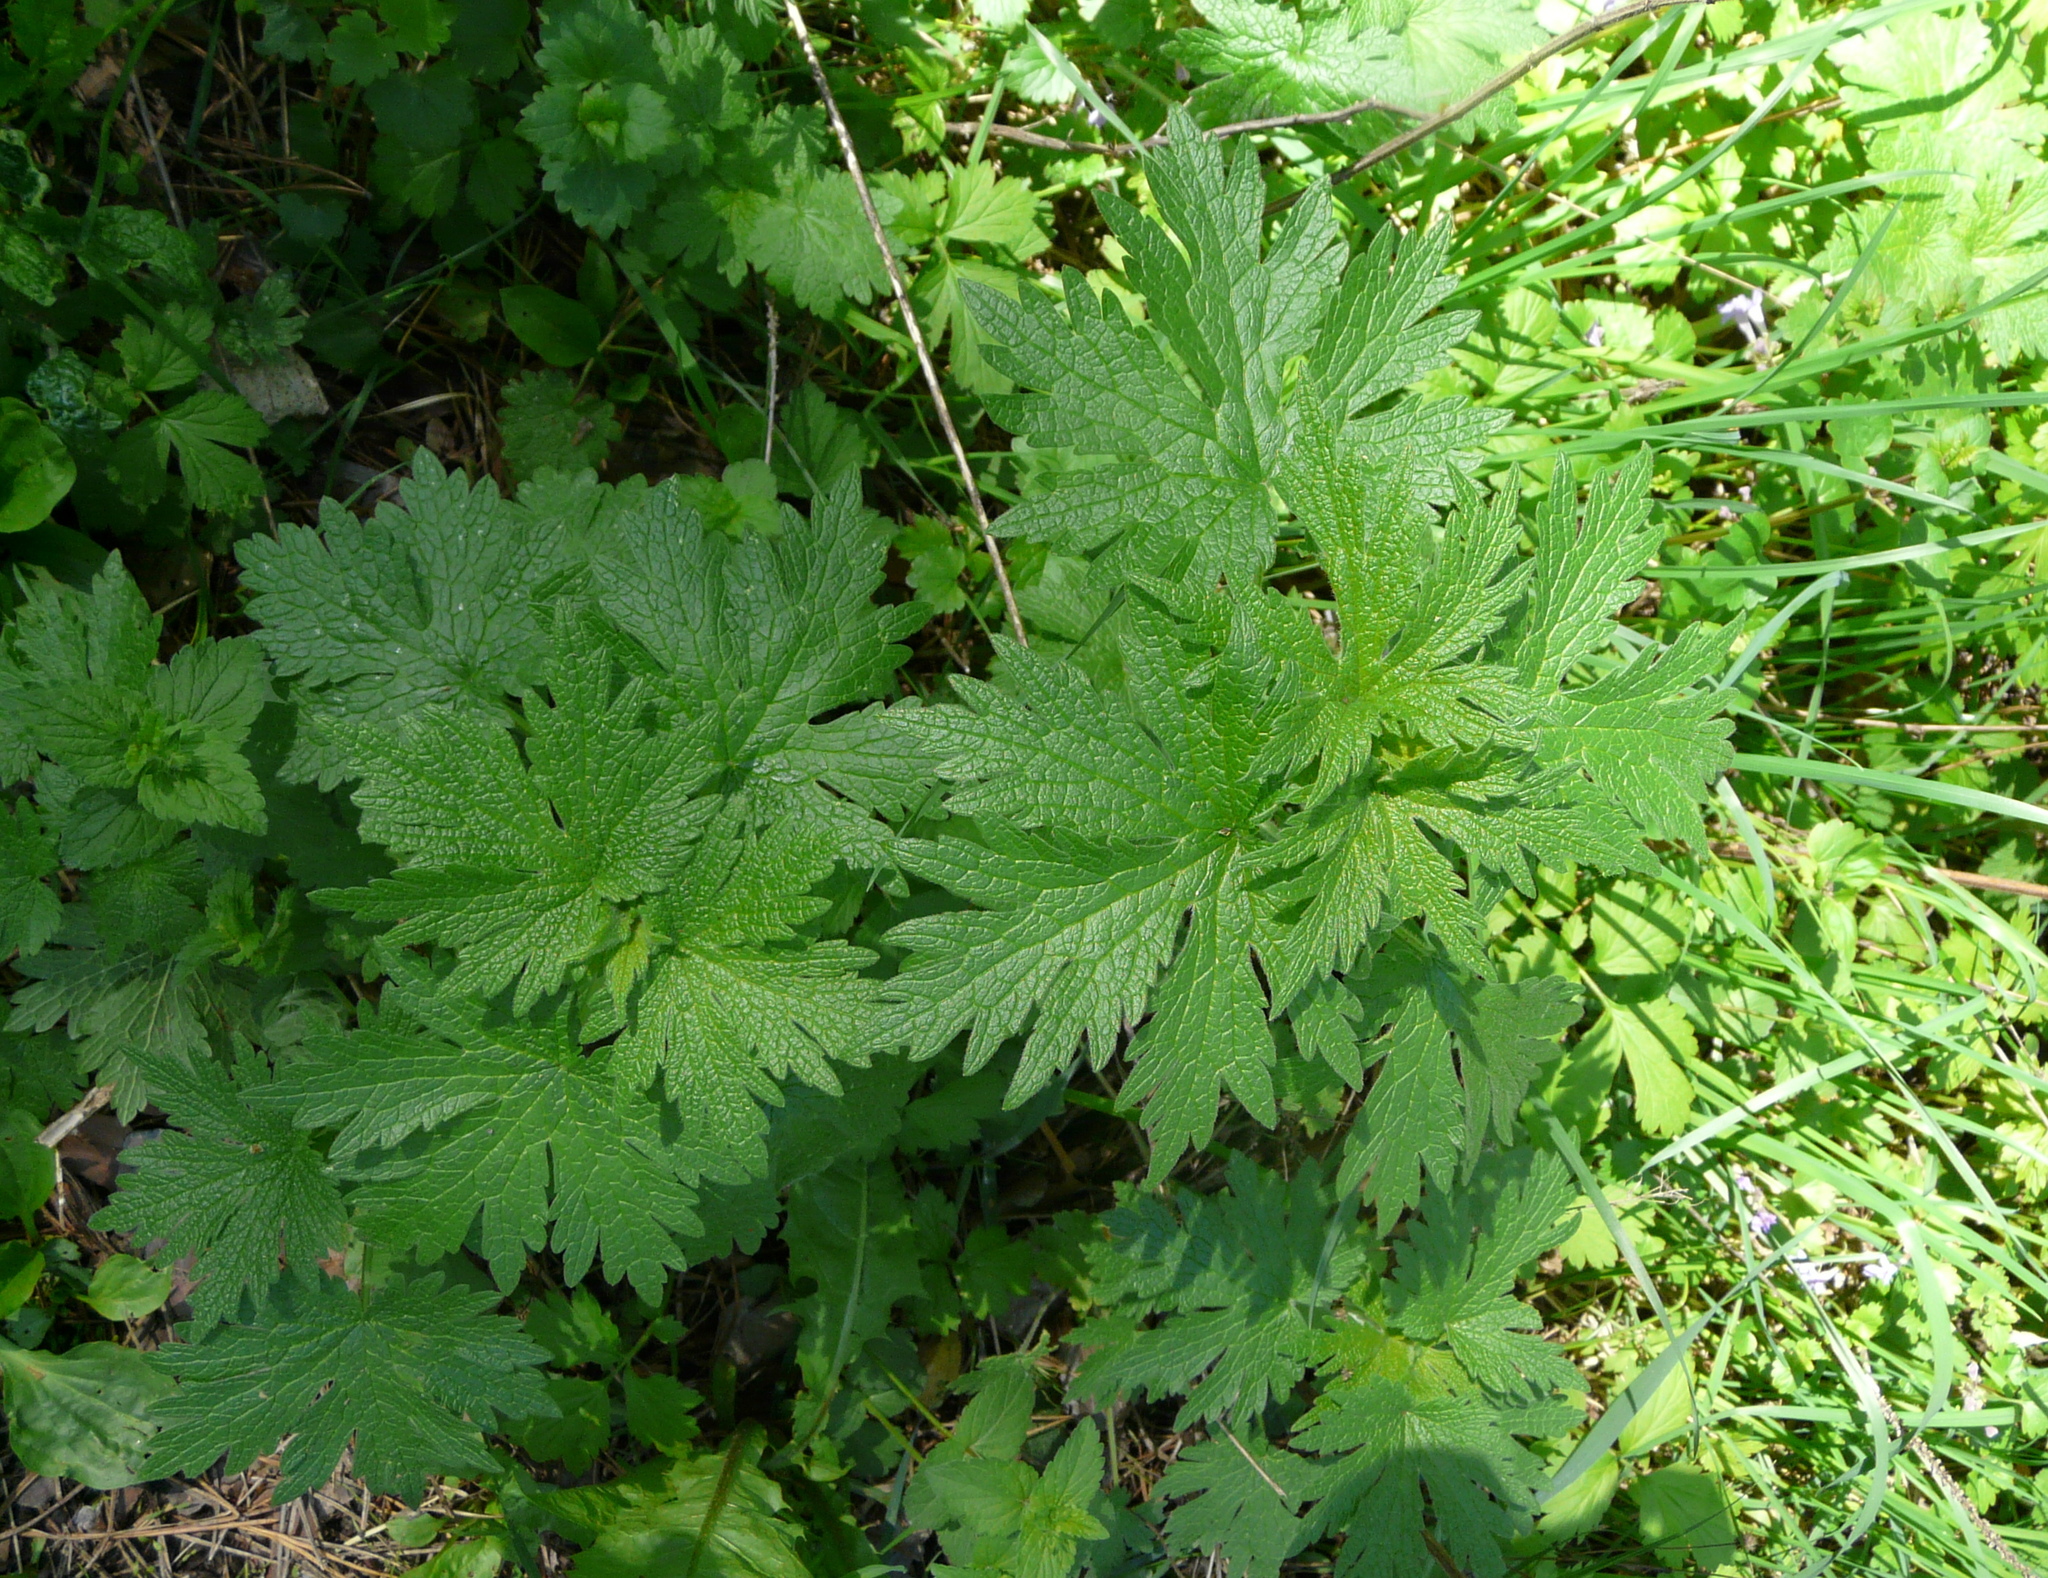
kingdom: Plantae
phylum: Tracheophyta
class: Magnoliopsida
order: Lamiales
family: Lamiaceae
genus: Leonurus
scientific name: Leonurus quinquelobatus
